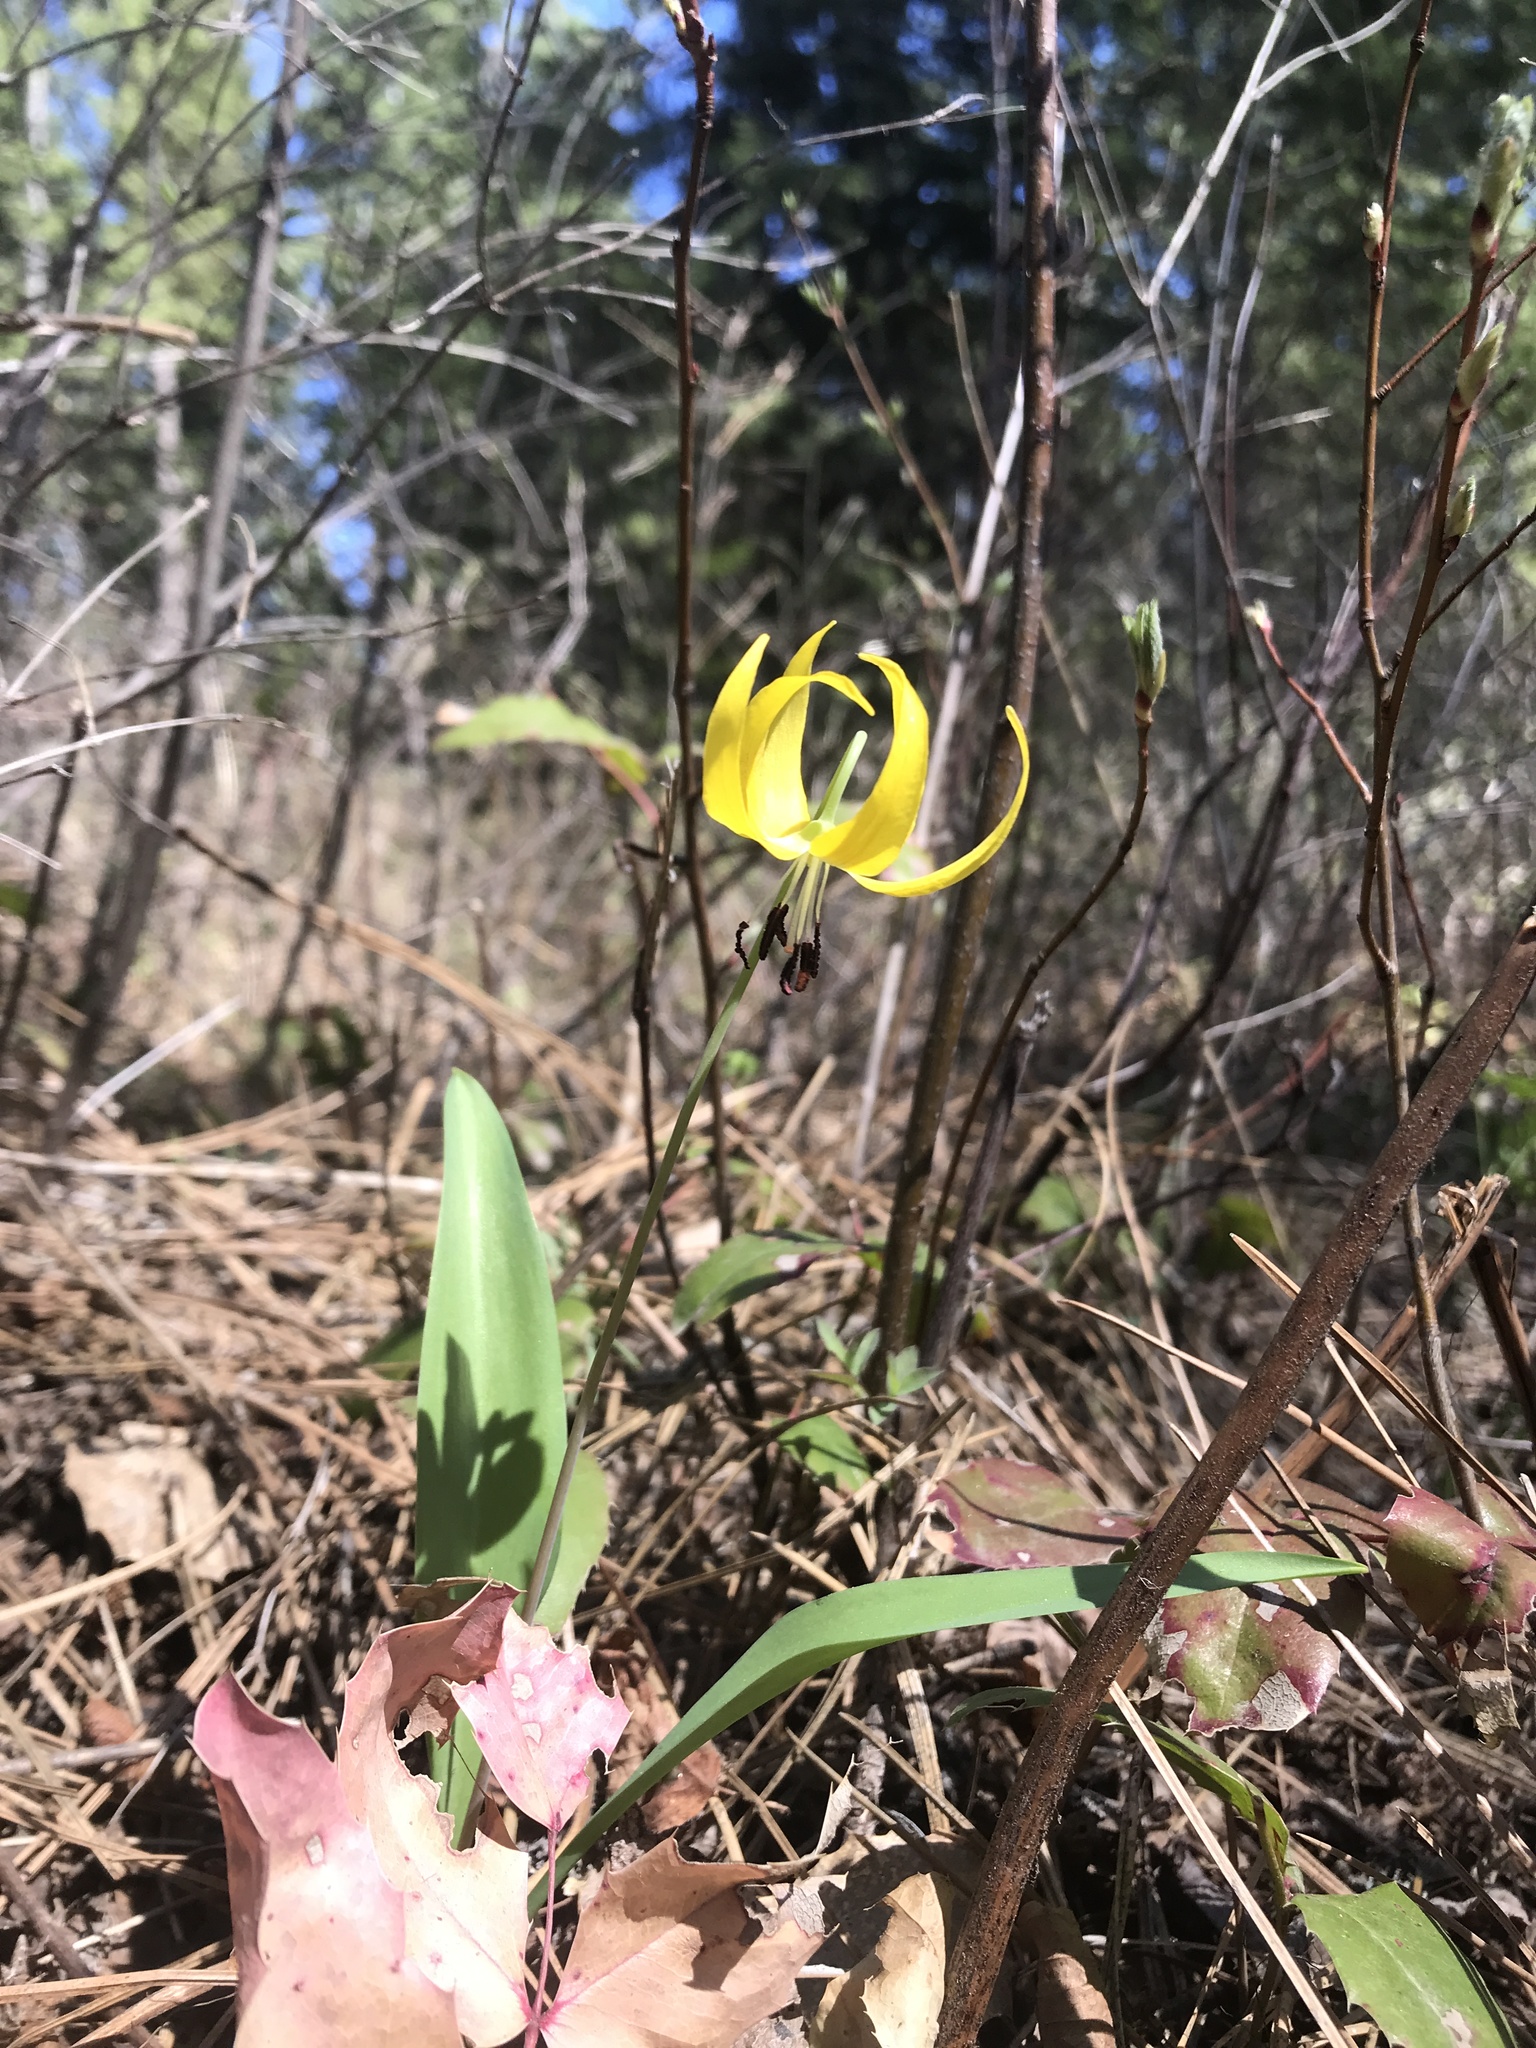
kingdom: Plantae
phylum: Tracheophyta
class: Liliopsida
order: Liliales
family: Liliaceae
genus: Erythronium
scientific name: Erythronium grandiflorum
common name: Avalanche-lily
